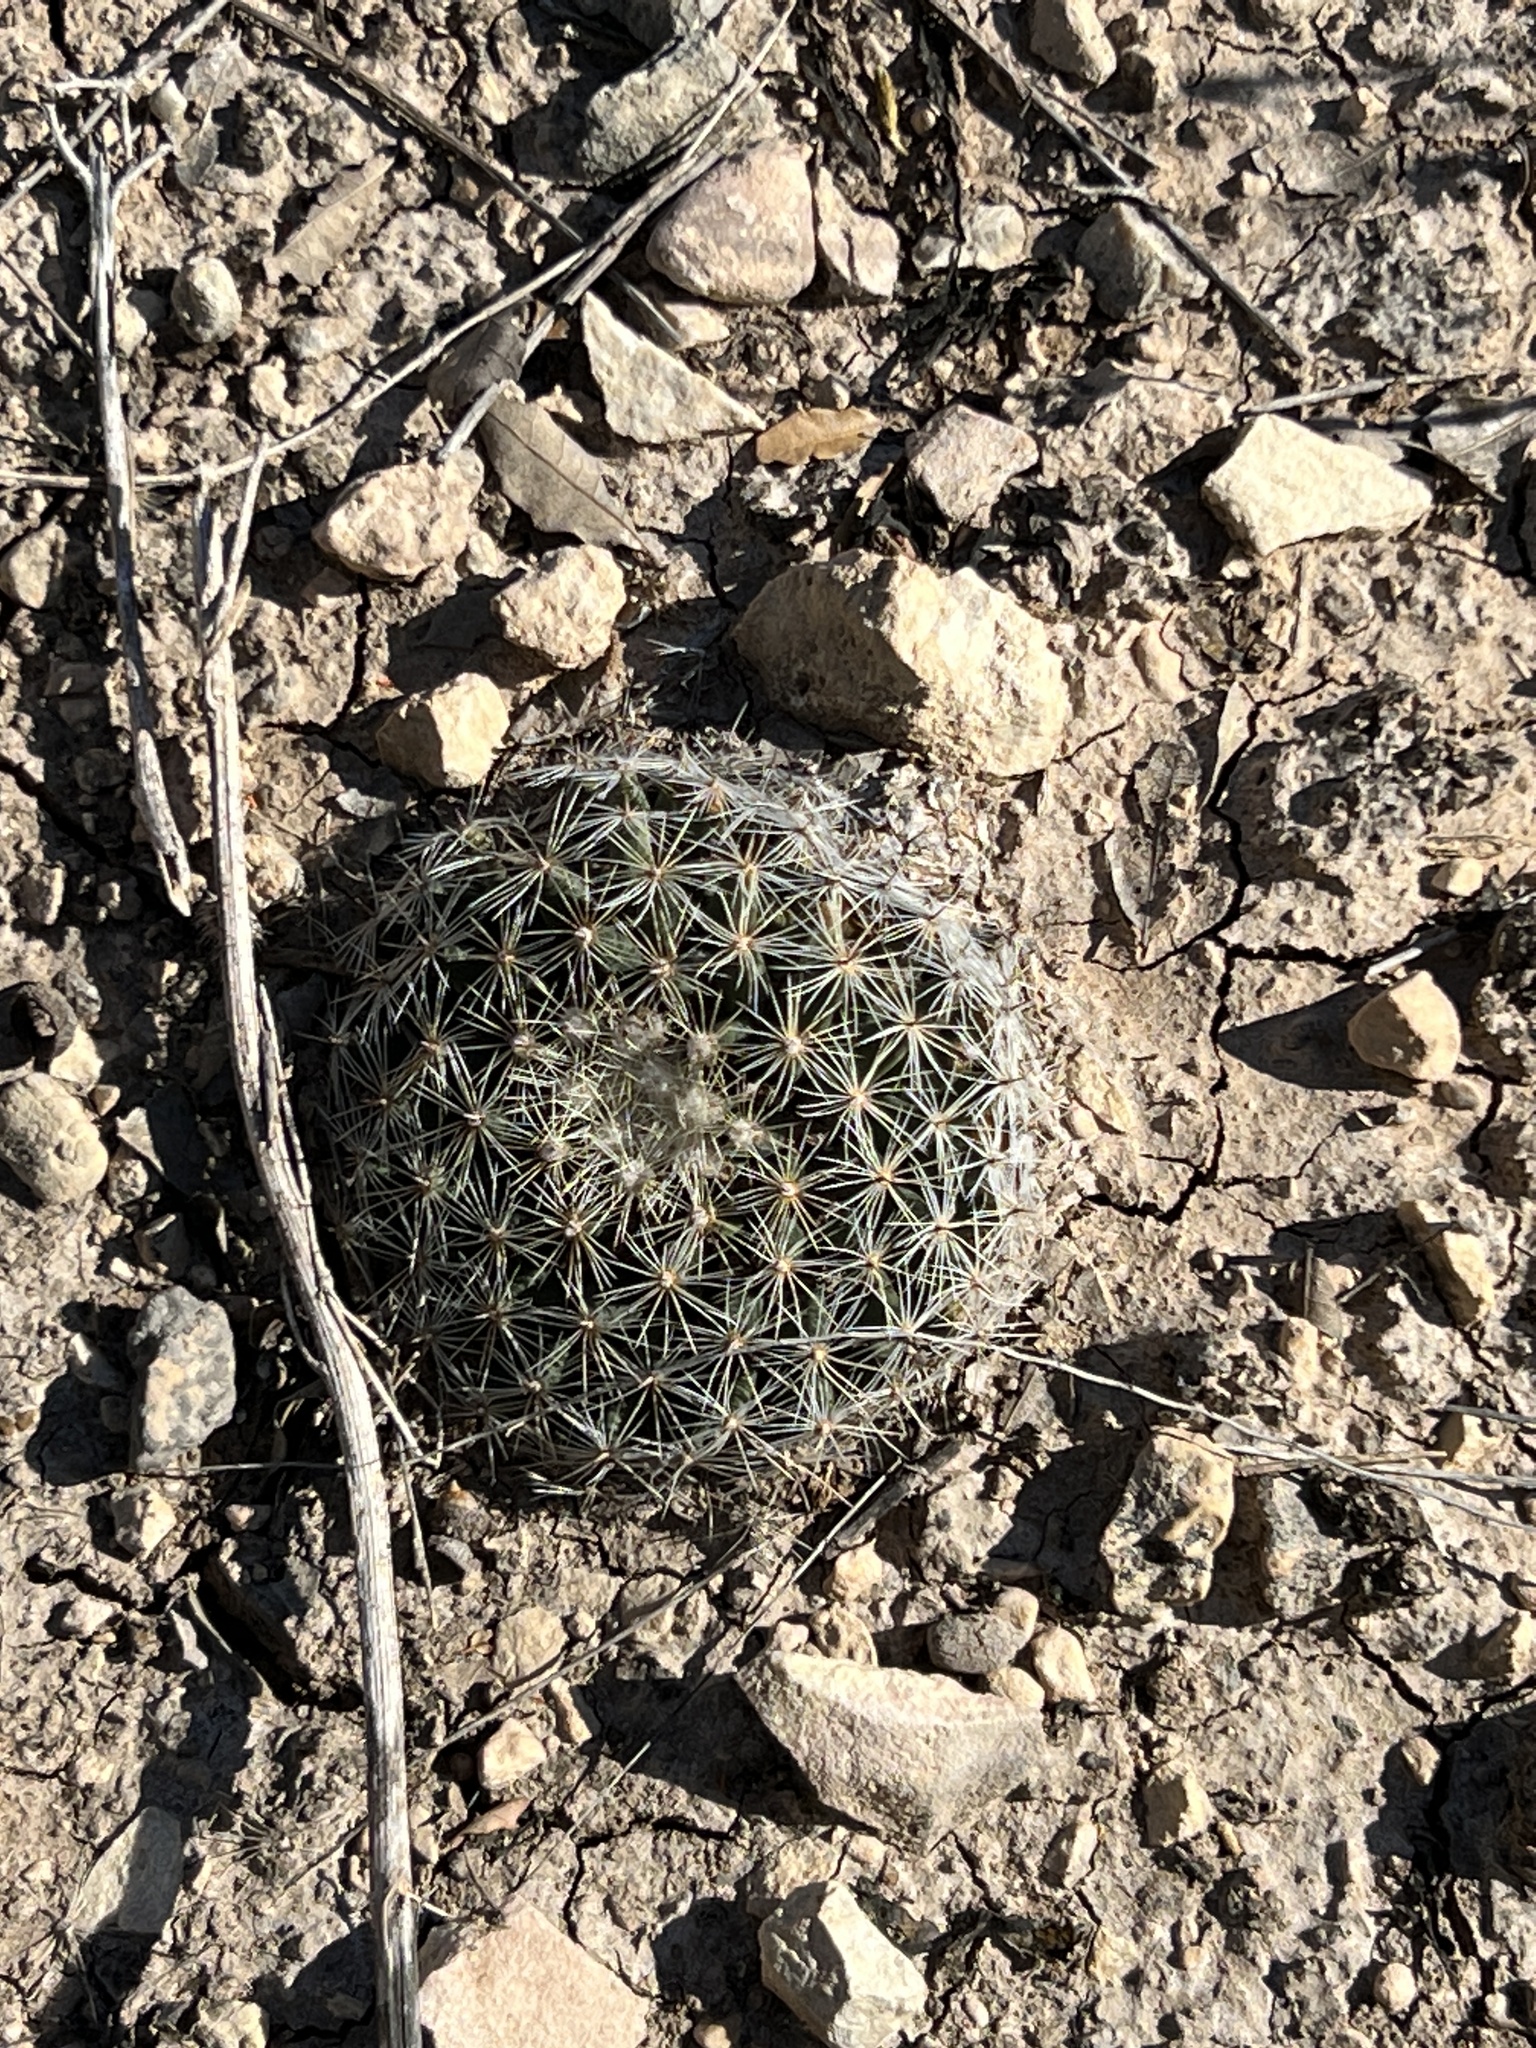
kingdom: Plantae
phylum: Tracheophyta
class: Magnoliopsida
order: Caryophyllales
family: Cactaceae
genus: Mammillaria
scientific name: Mammillaria heyderi
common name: Little nipple cactus
